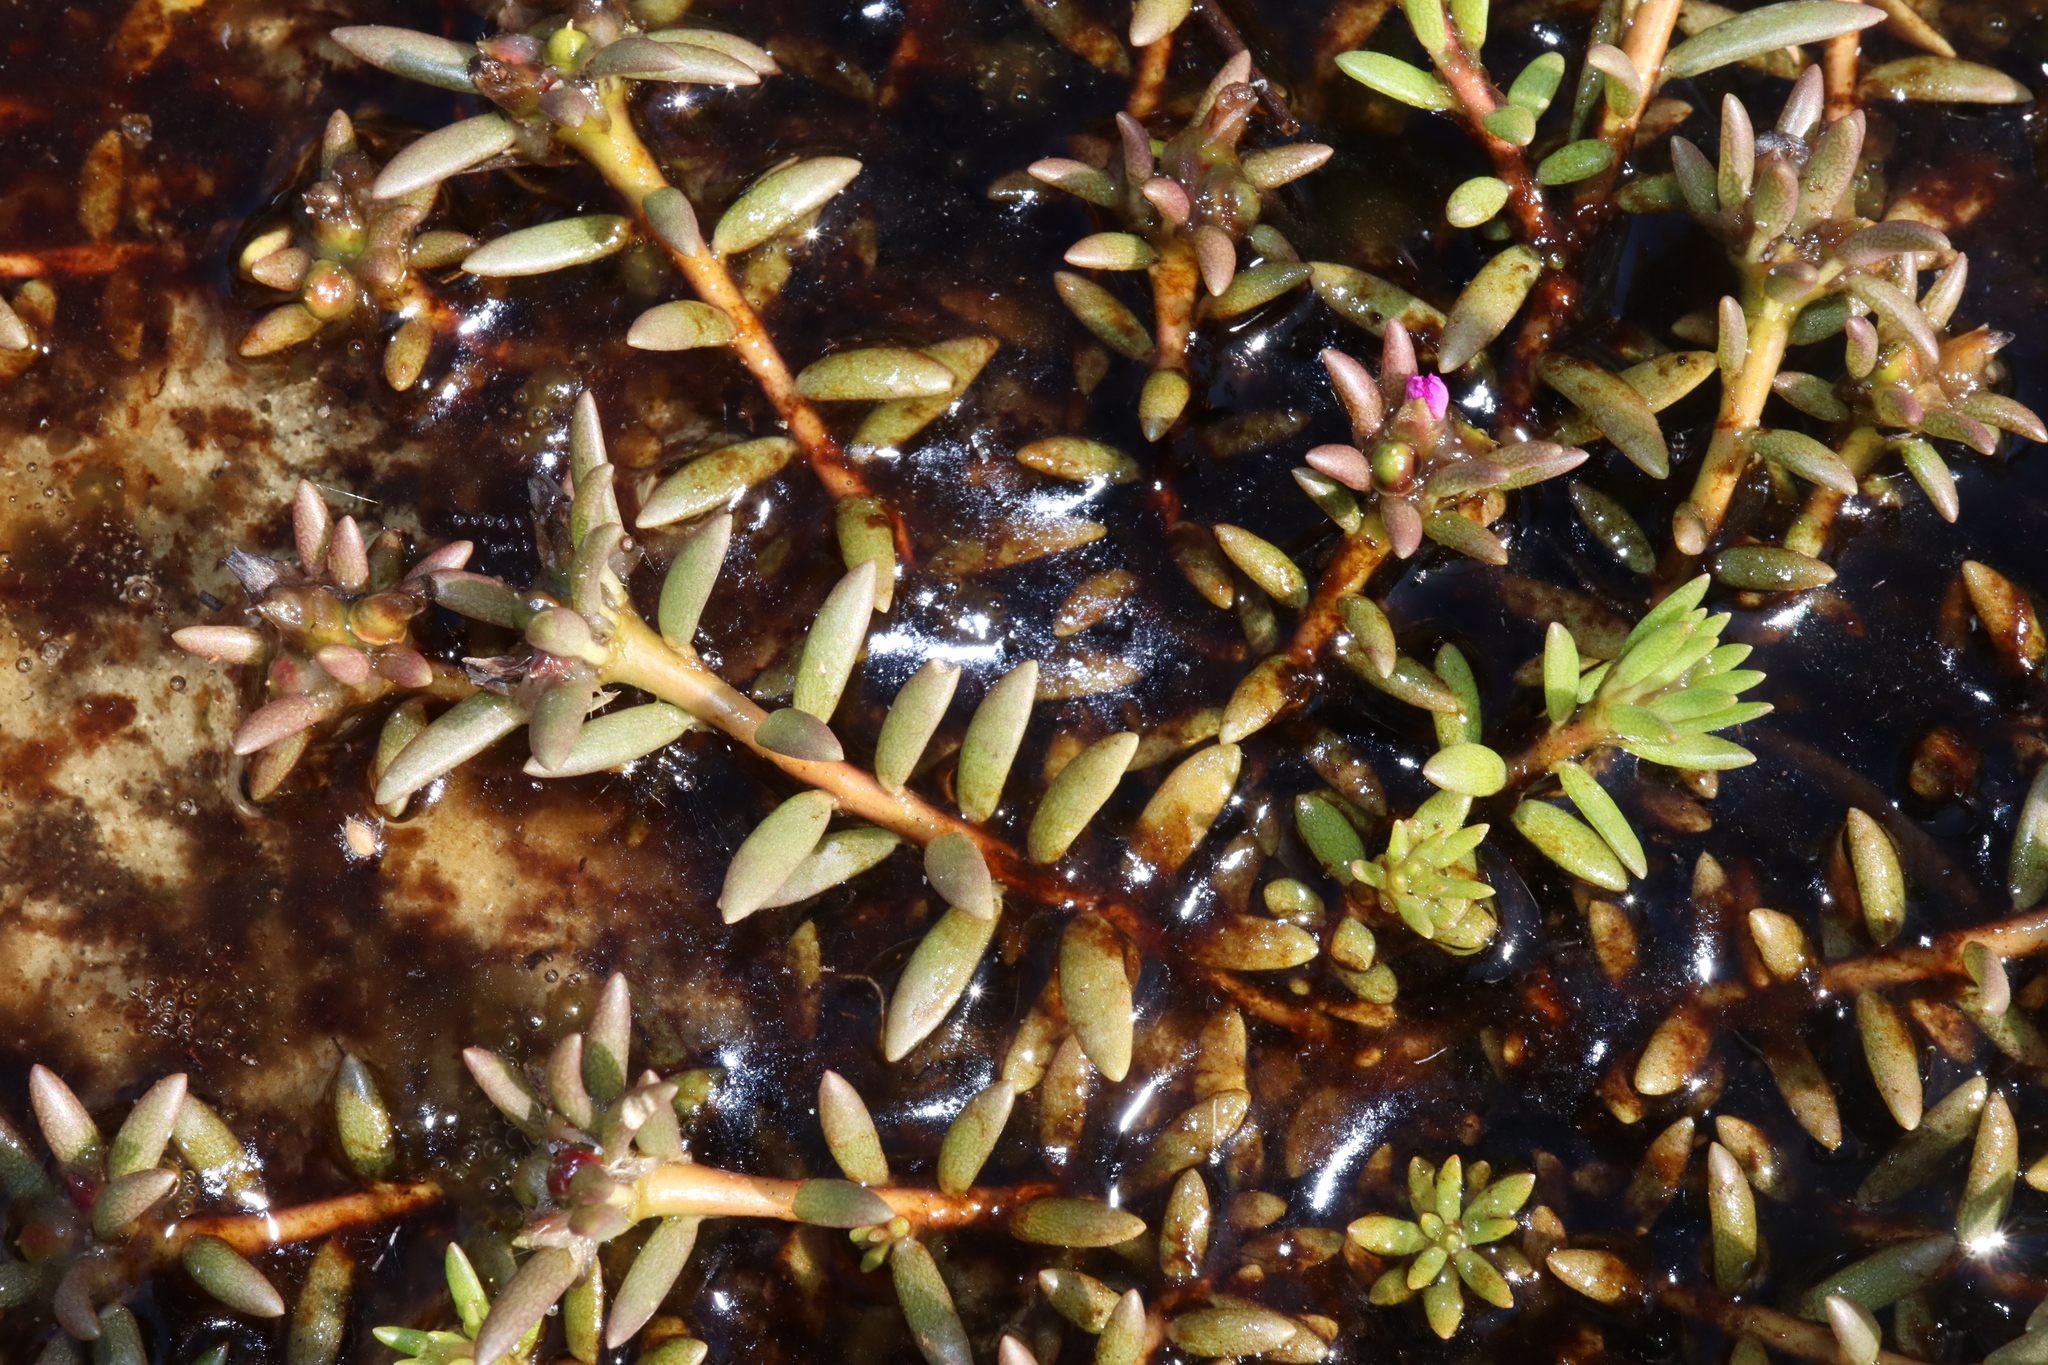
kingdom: Plantae
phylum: Tracheophyta
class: Magnoliopsida
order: Caryophyllales
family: Portulacaceae
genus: Portulaca
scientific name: Portulaca pilosa
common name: Kiss me quick
